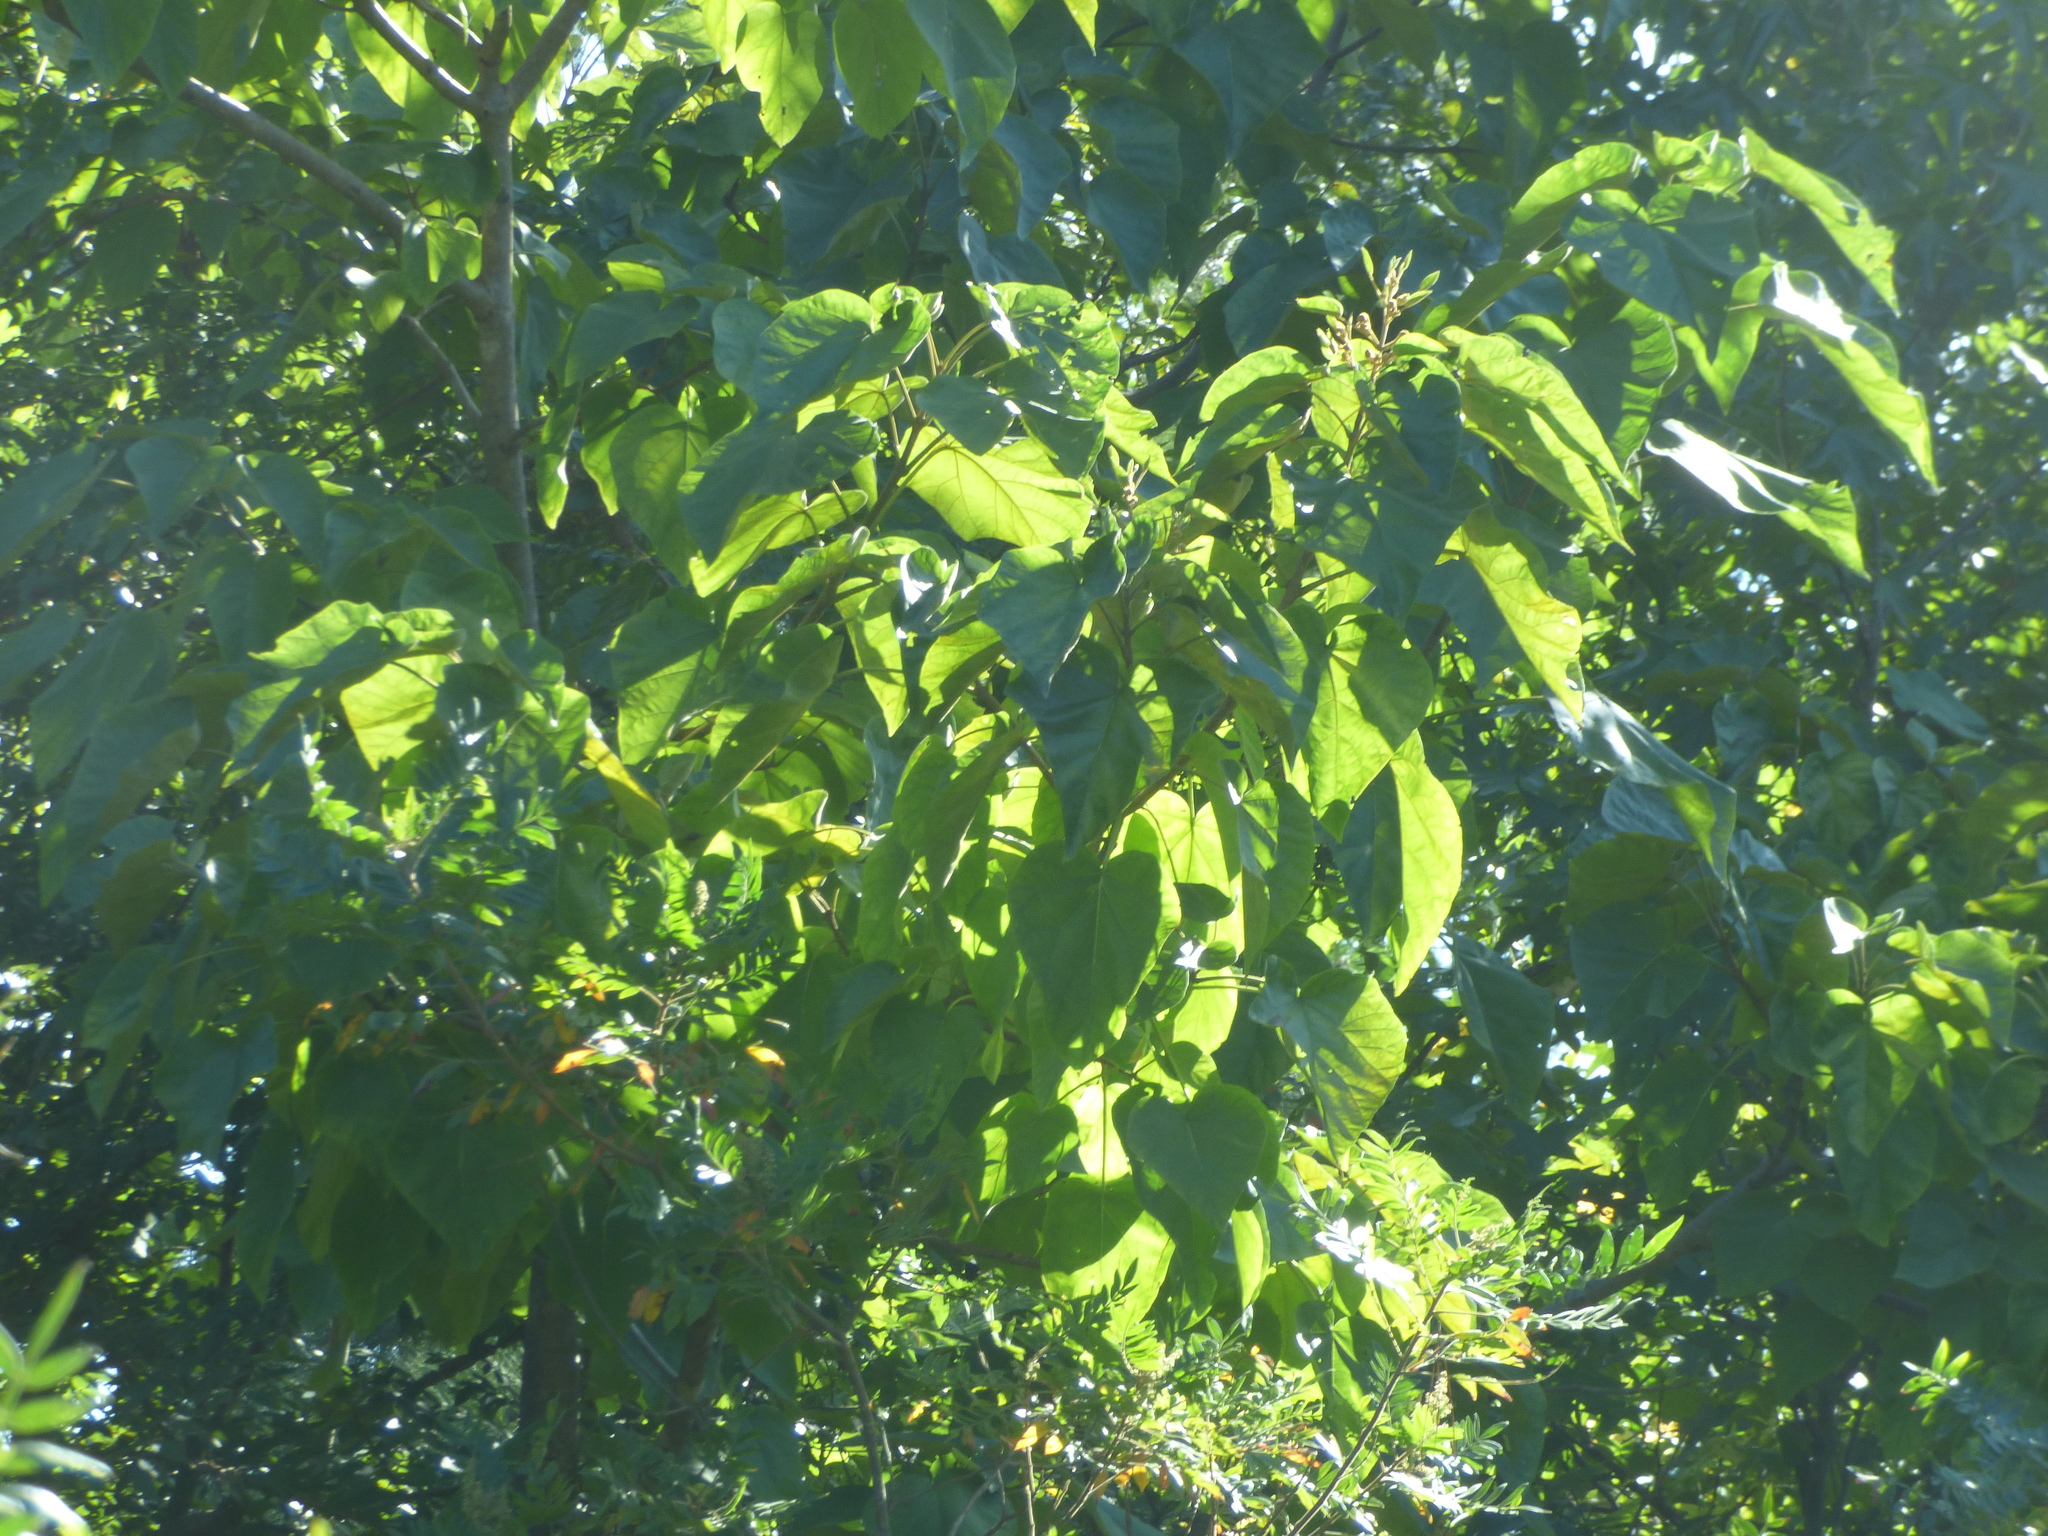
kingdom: Plantae
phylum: Tracheophyta
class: Magnoliopsida
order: Lamiales
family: Paulowniaceae
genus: Paulownia
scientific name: Paulownia tomentosa
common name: Foxglove-tree
